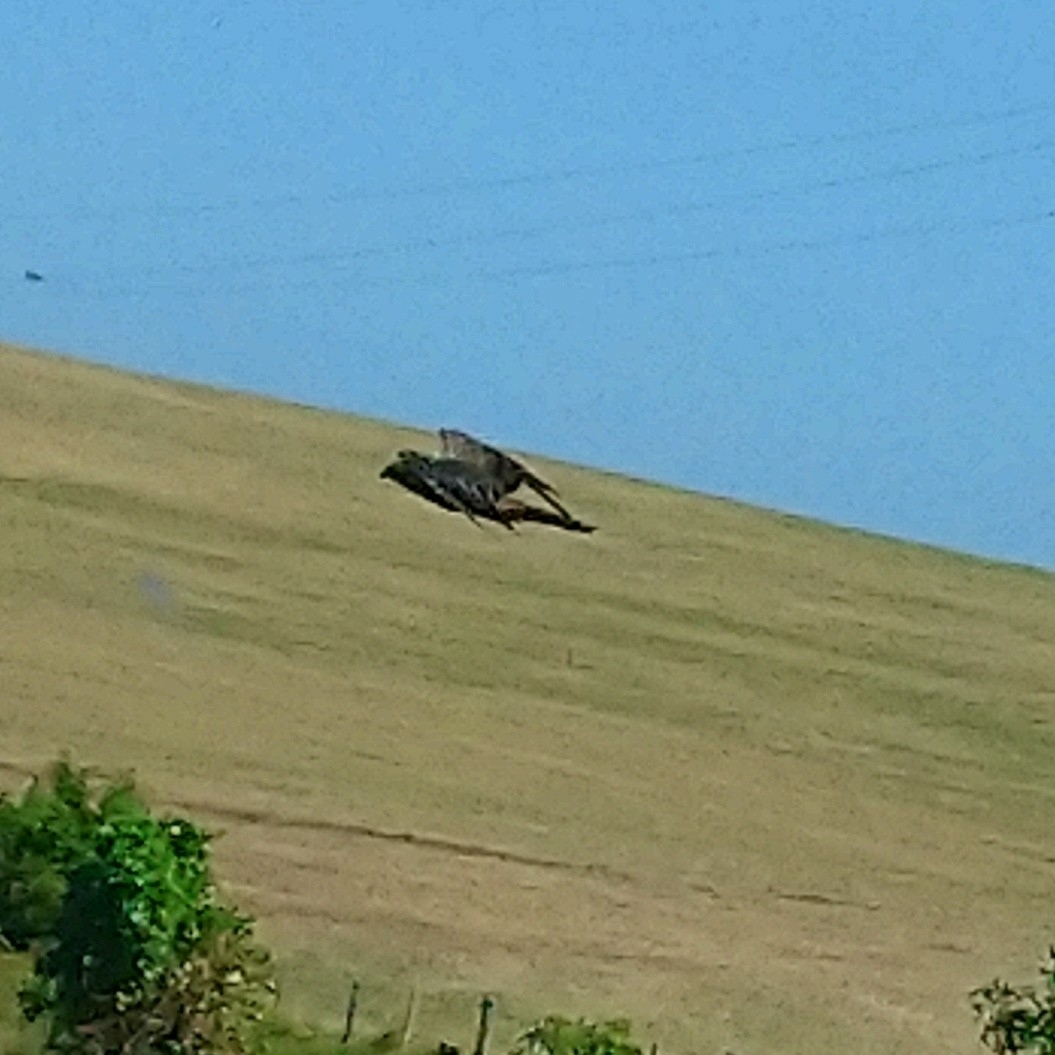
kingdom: Animalia
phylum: Chordata
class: Aves
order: Accipitriformes
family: Accipitridae
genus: Circus
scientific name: Circus ranivorus
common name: African marsh-harrier
